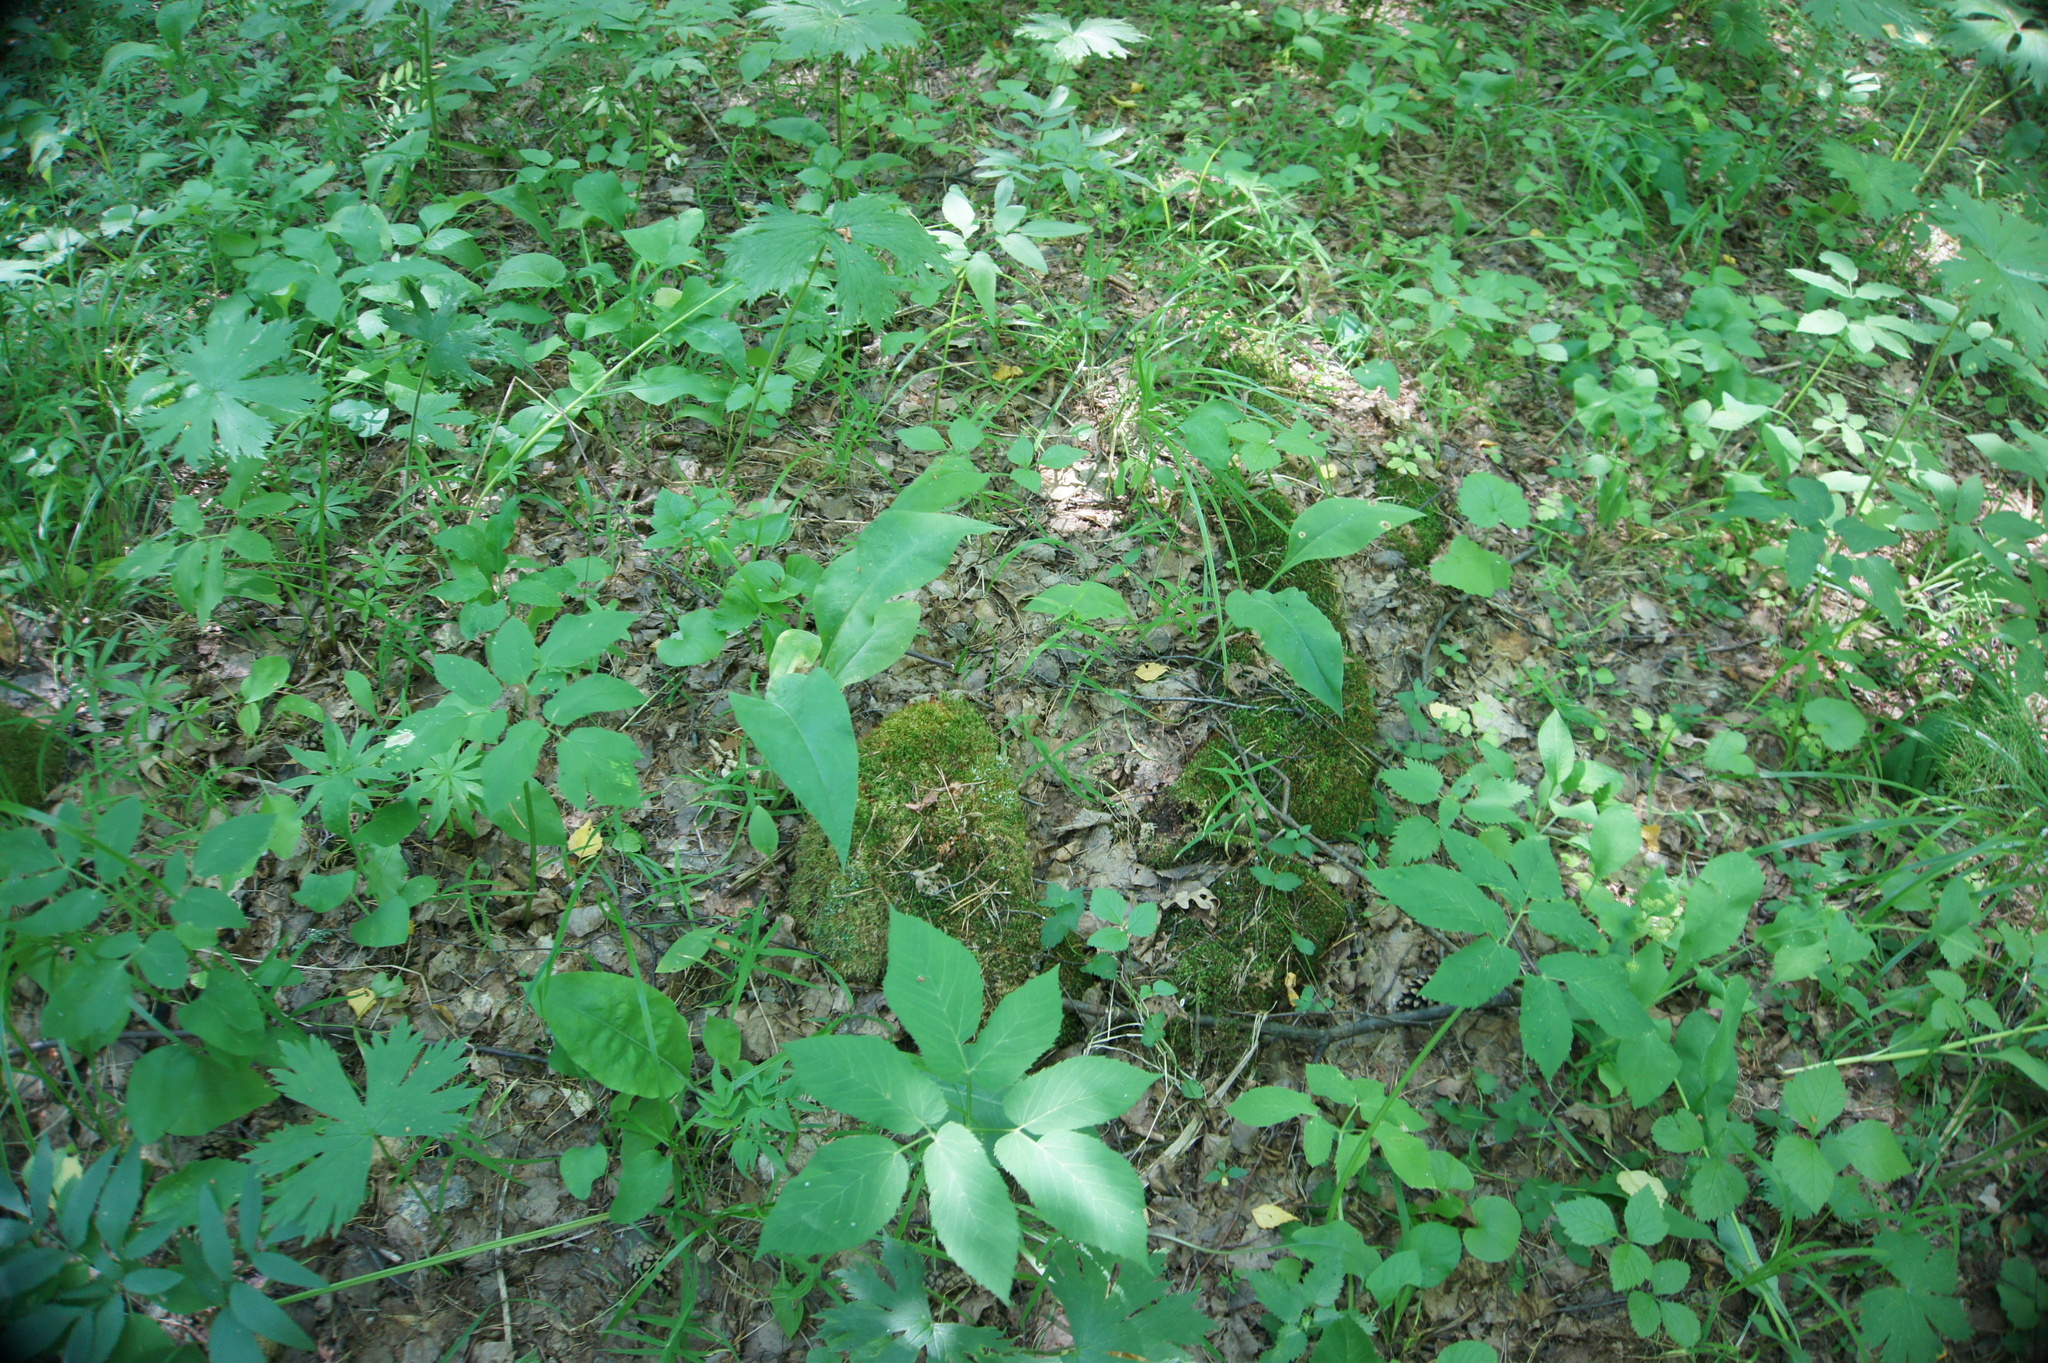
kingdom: Plantae
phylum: Tracheophyta
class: Magnoliopsida
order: Apiales
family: Apiaceae
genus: Aegopodium
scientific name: Aegopodium podagraria
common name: Ground-elder
